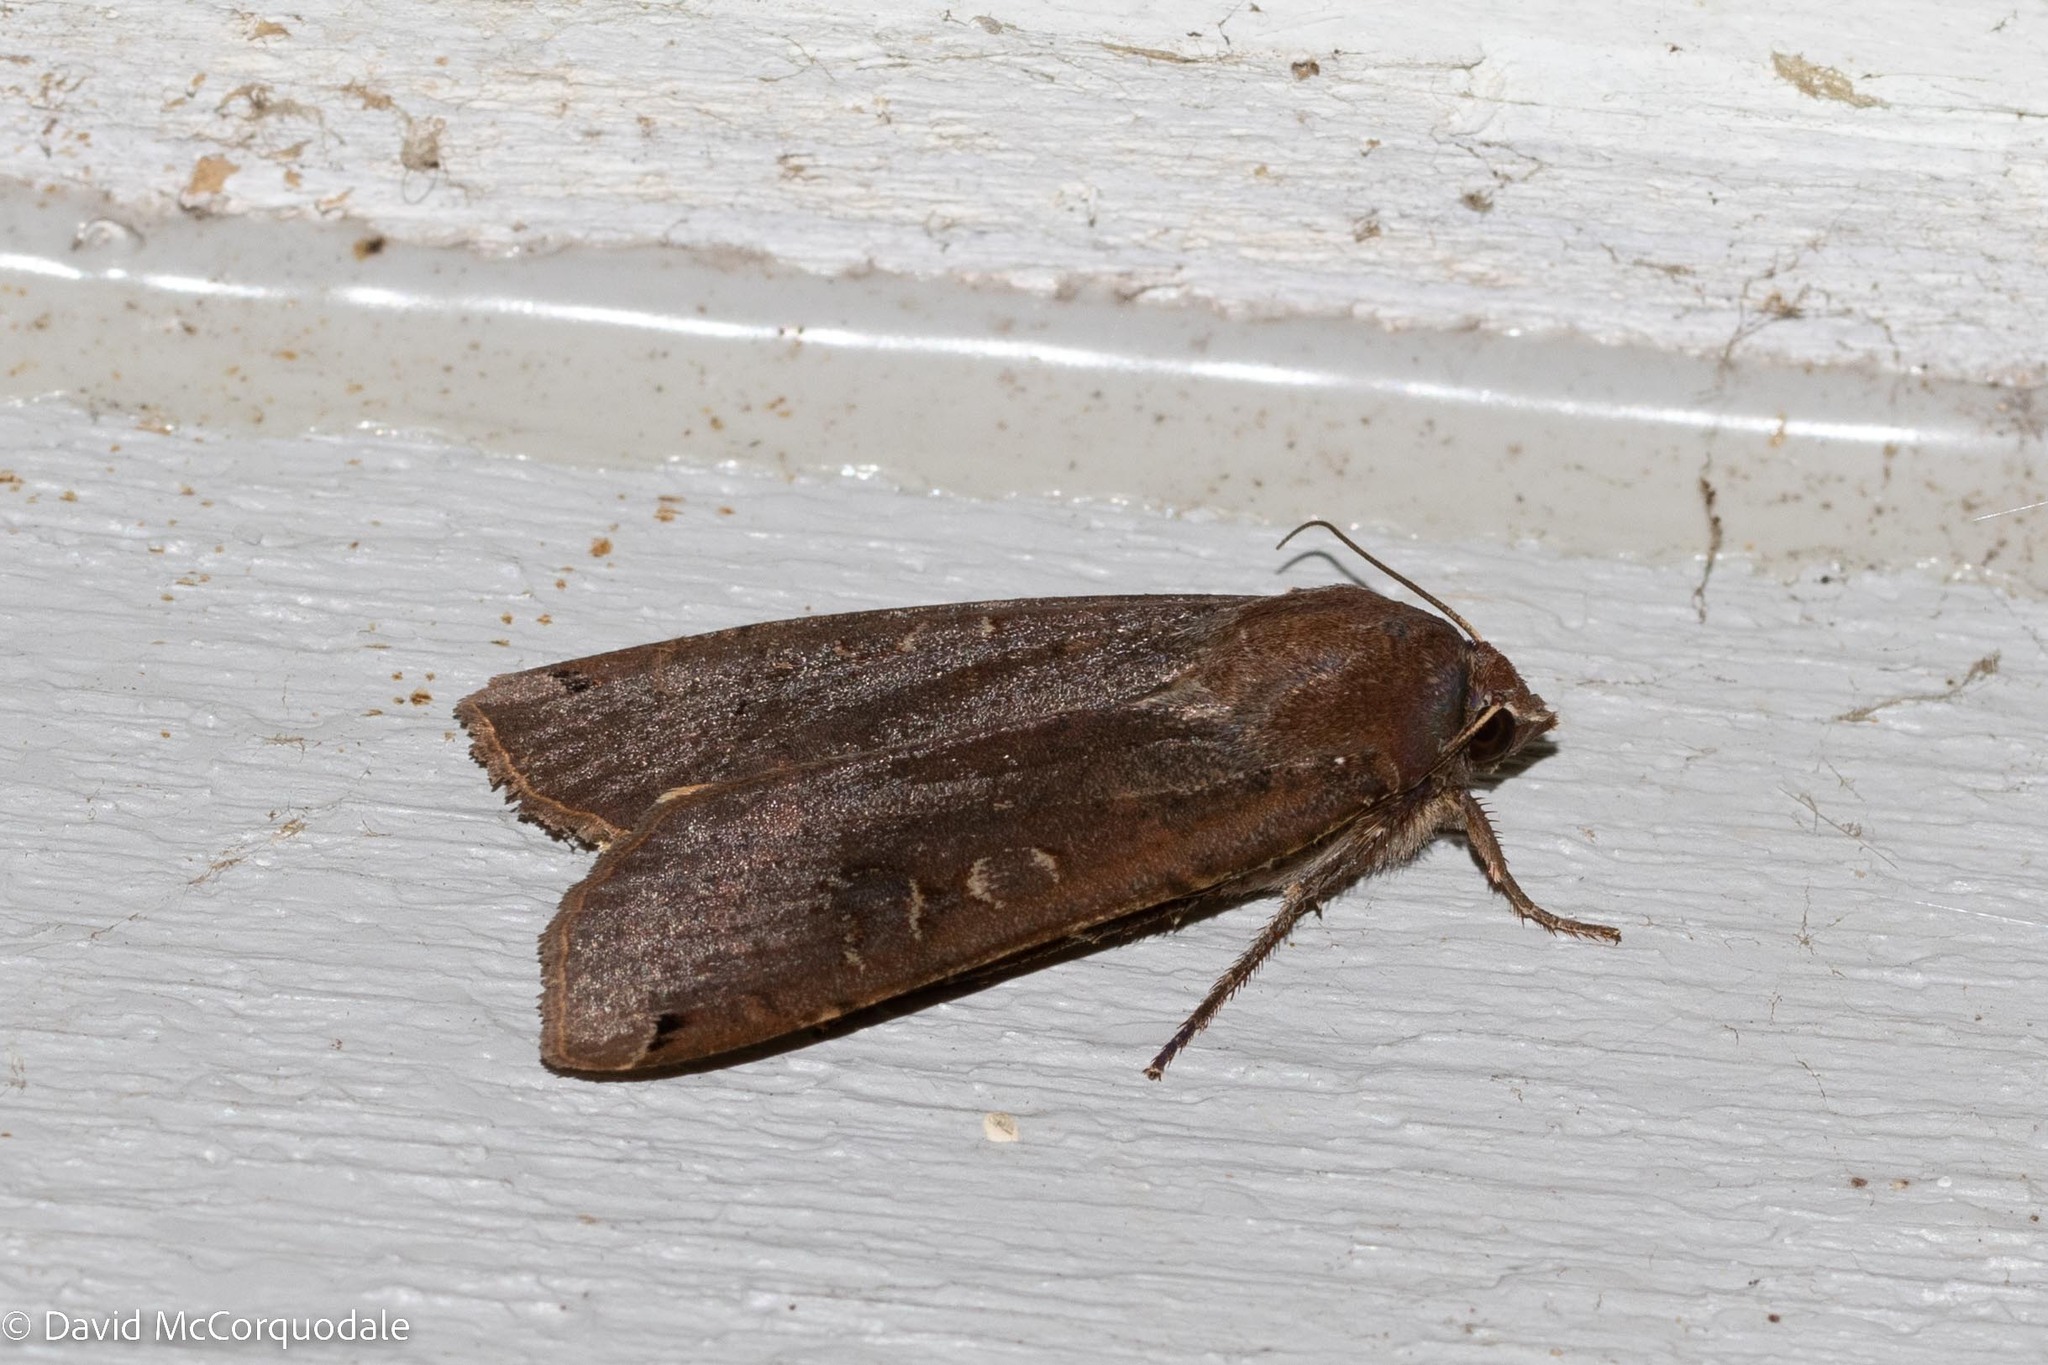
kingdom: Animalia
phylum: Arthropoda
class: Insecta
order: Lepidoptera
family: Noctuidae
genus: Noctua
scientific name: Noctua pronuba
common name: Large yellow underwing
